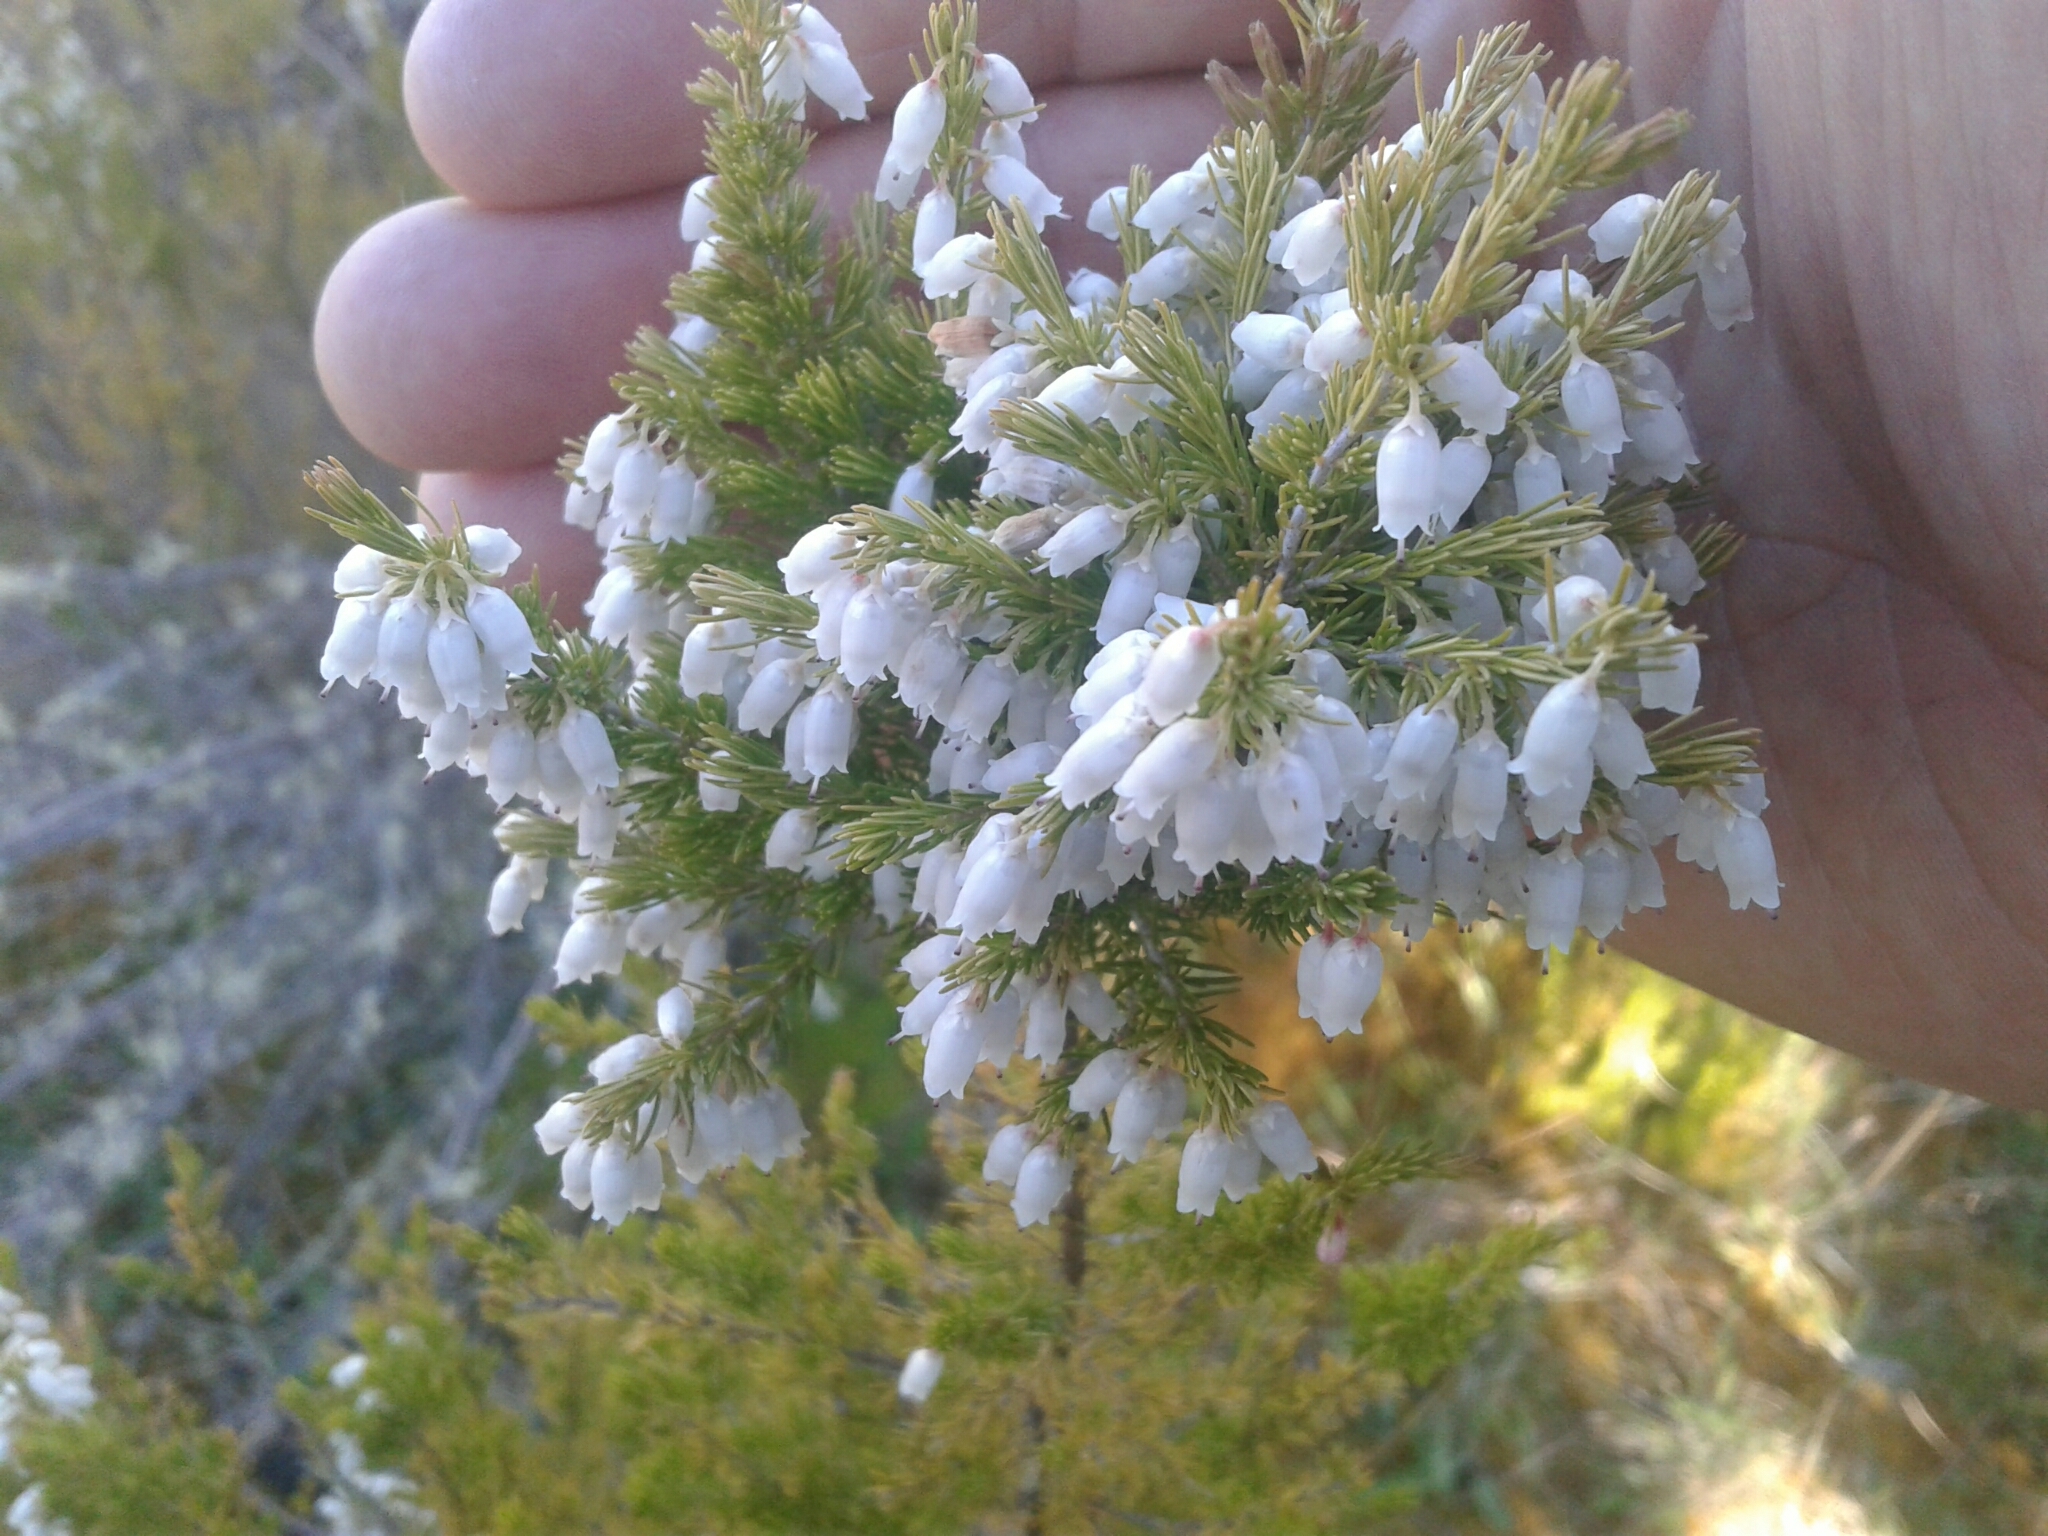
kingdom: Plantae
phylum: Tracheophyta
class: Magnoliopsida
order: Ericales
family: Ericaceae
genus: Erica
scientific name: Erica lusitanica
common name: Spanish heath
